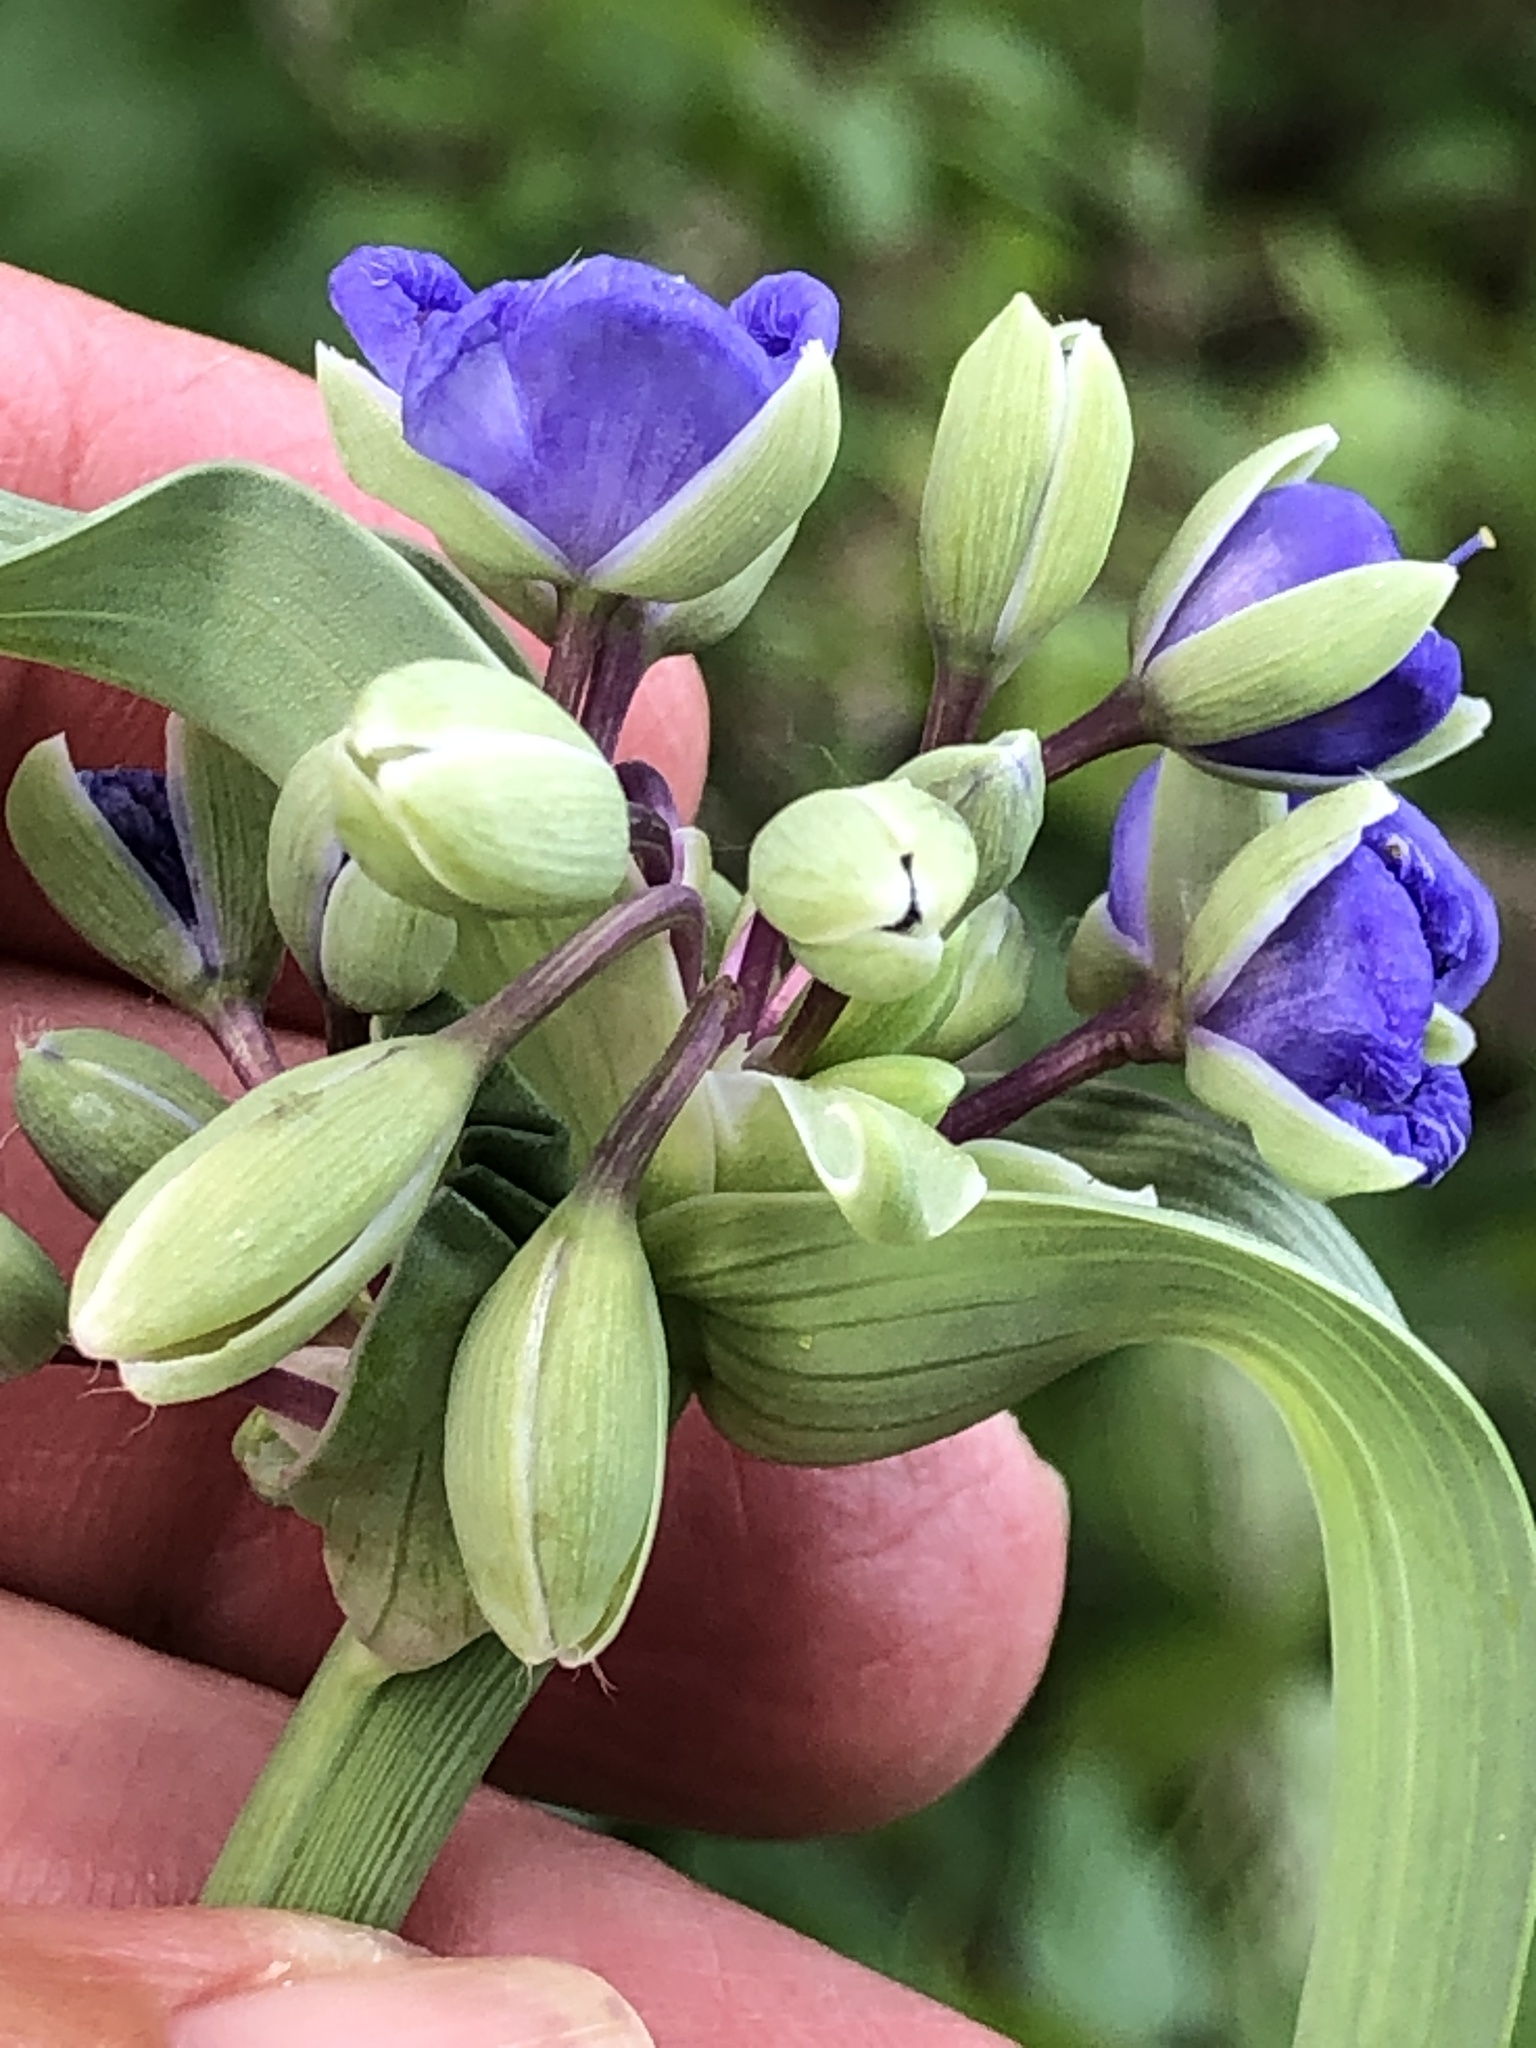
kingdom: Plantae
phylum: Tracheophyta
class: Liliopsida
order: Commelinales
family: Commelinaceae
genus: Tradescantia
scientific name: Tradescantia ohiensis
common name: Ohio spiderwort
